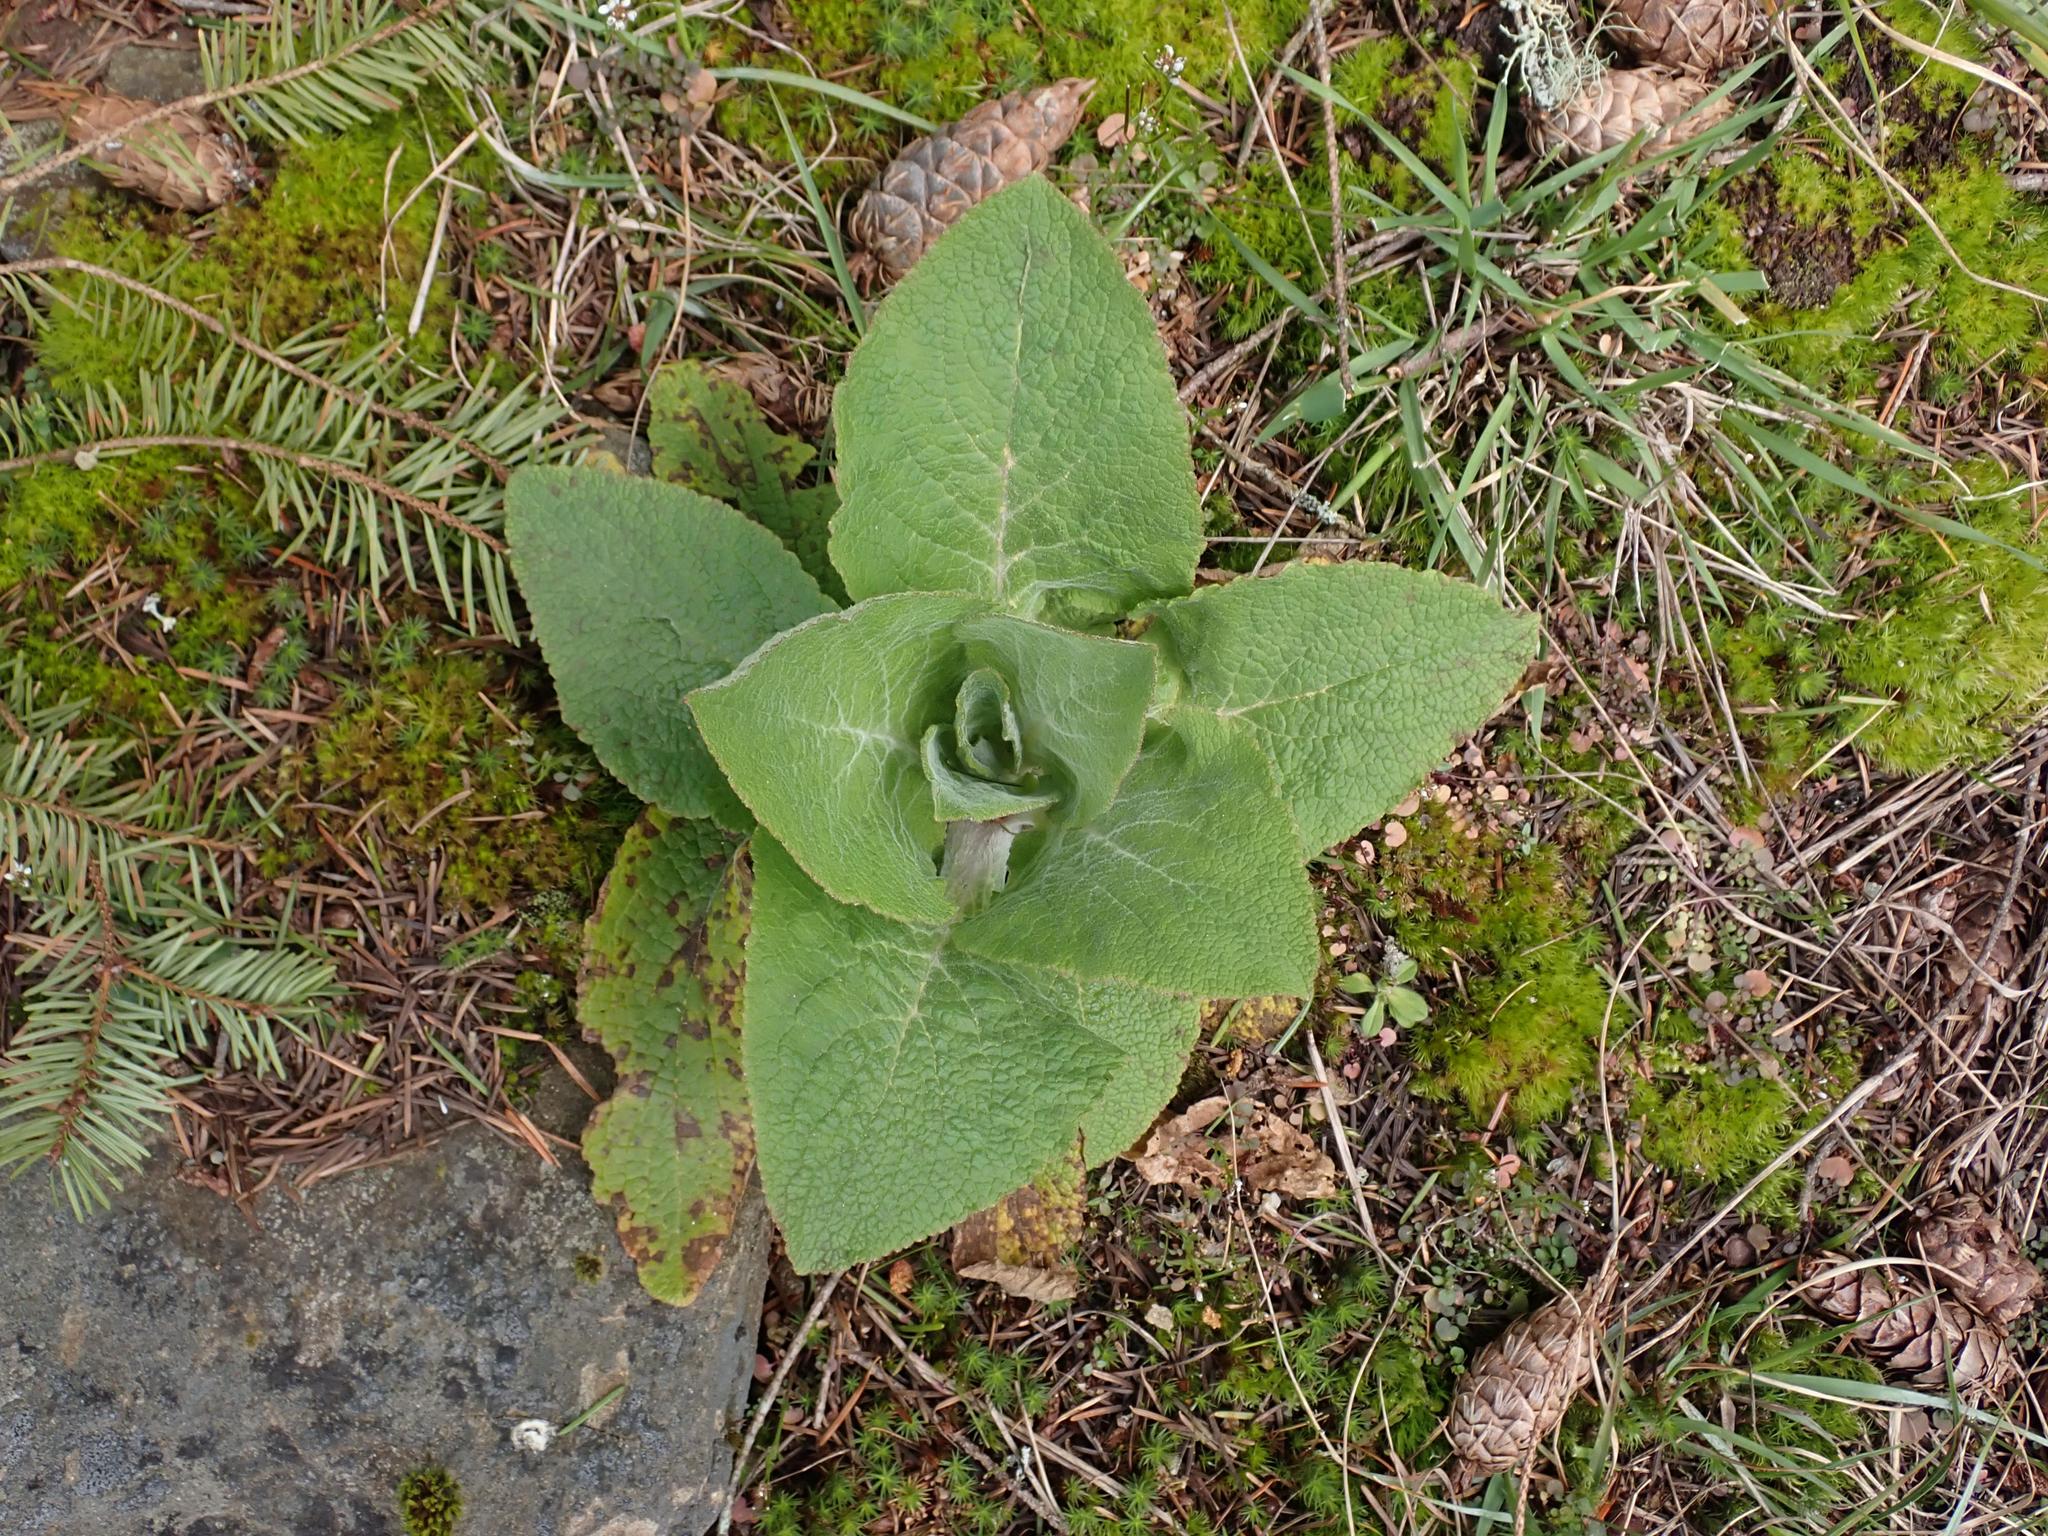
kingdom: Plantae
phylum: Tracheophyta
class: Magnoliopsida
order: Lamiales
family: Plantaginaceae
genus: Digitalis
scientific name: Digitalis purpurea
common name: Foxglove
